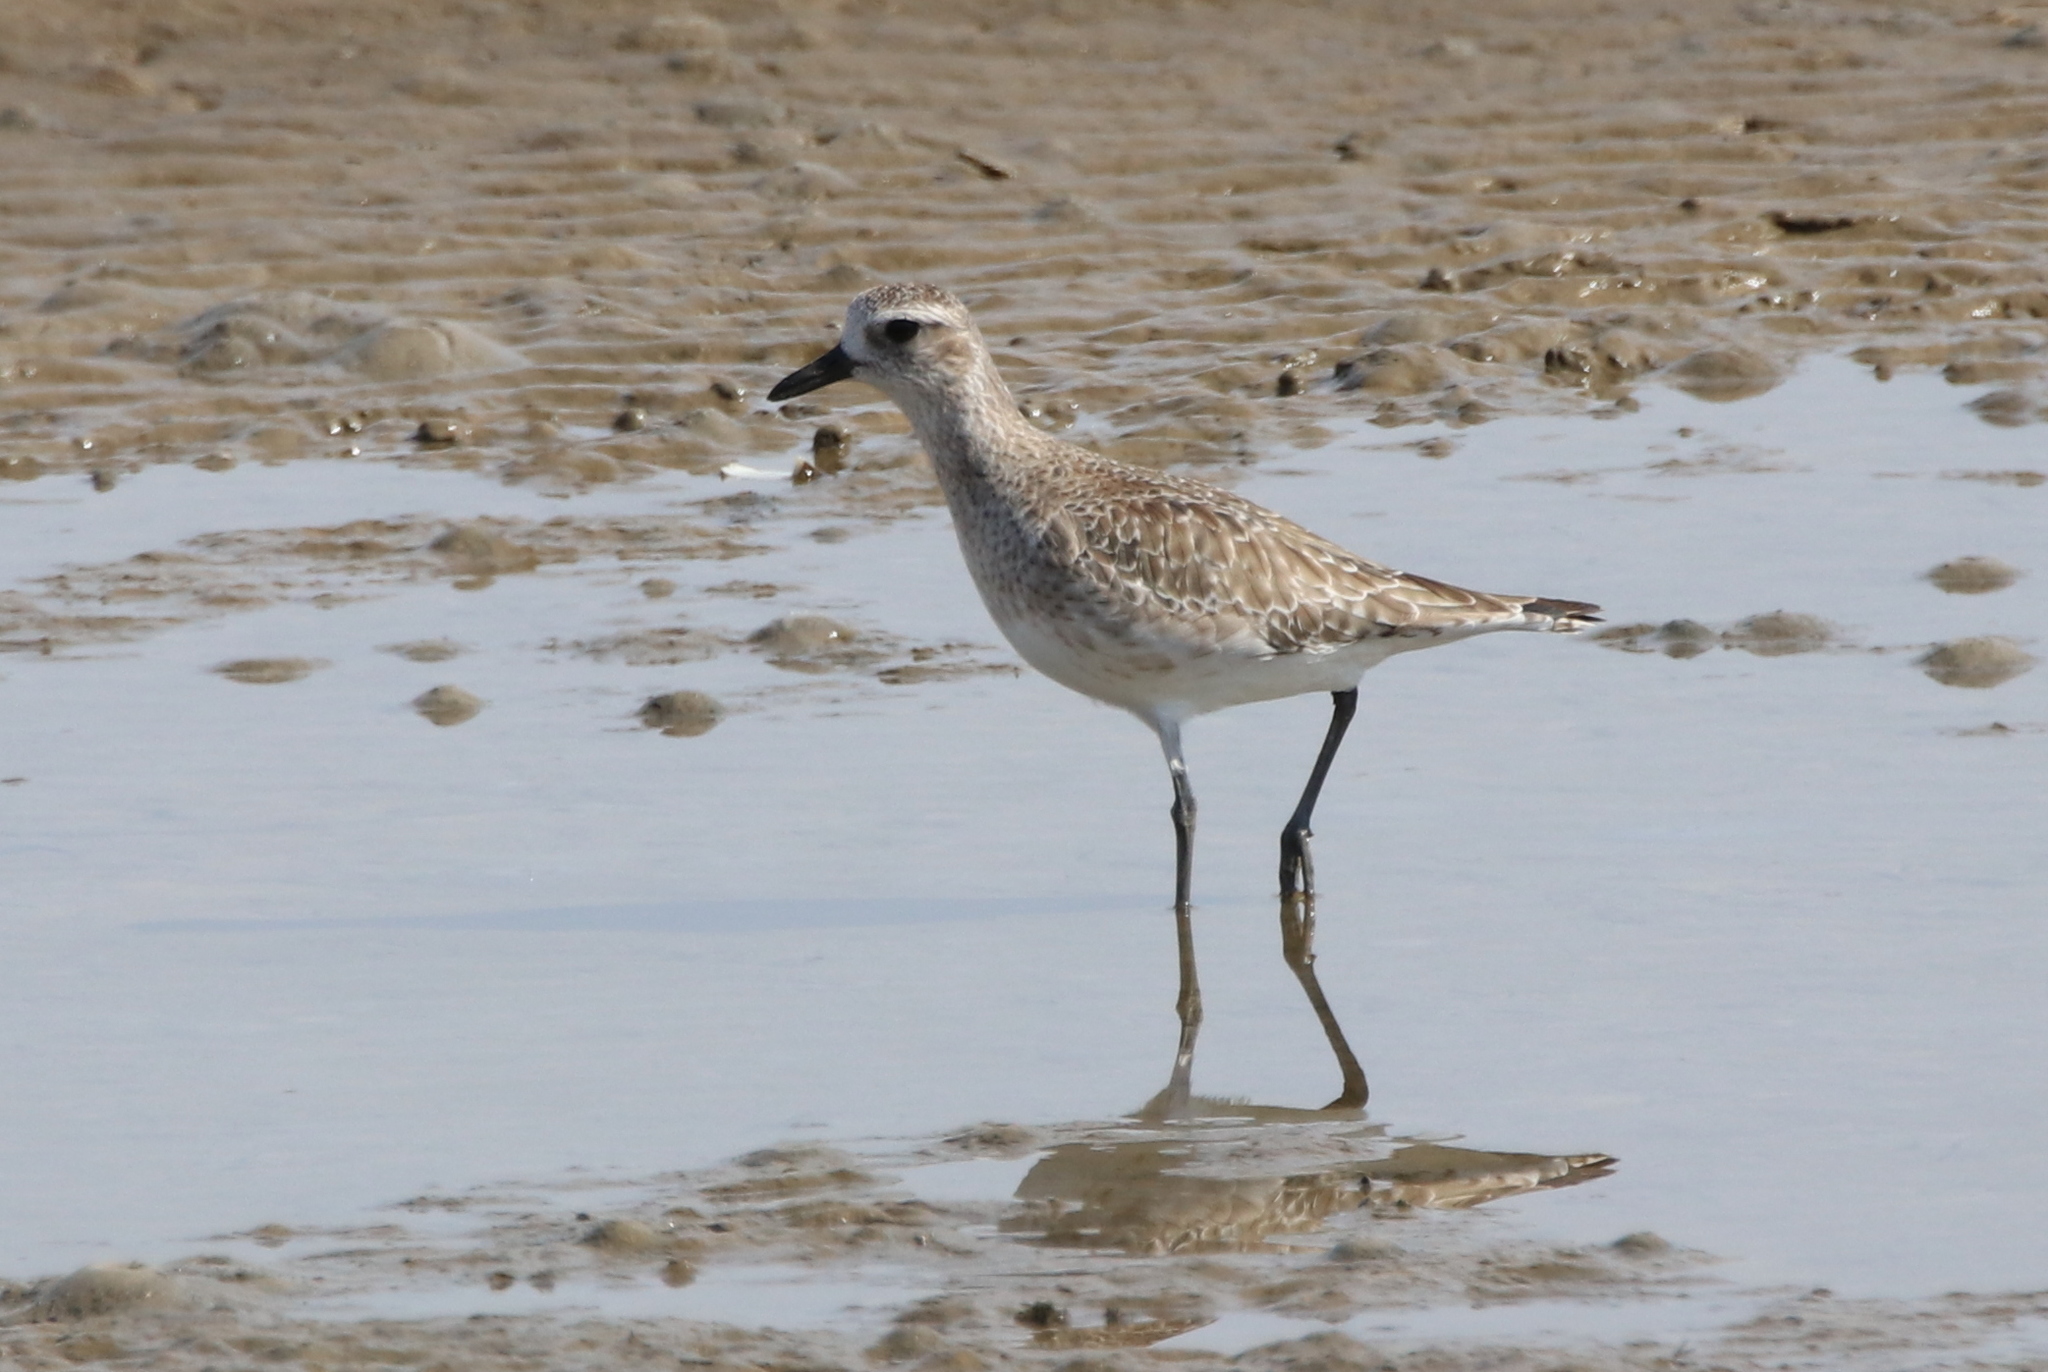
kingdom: Animalia
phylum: Chordata
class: Aves
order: Charadriiformes
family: Charadriidae
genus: Pluvialis
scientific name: Pluvialis squatarola
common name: Grey plover
